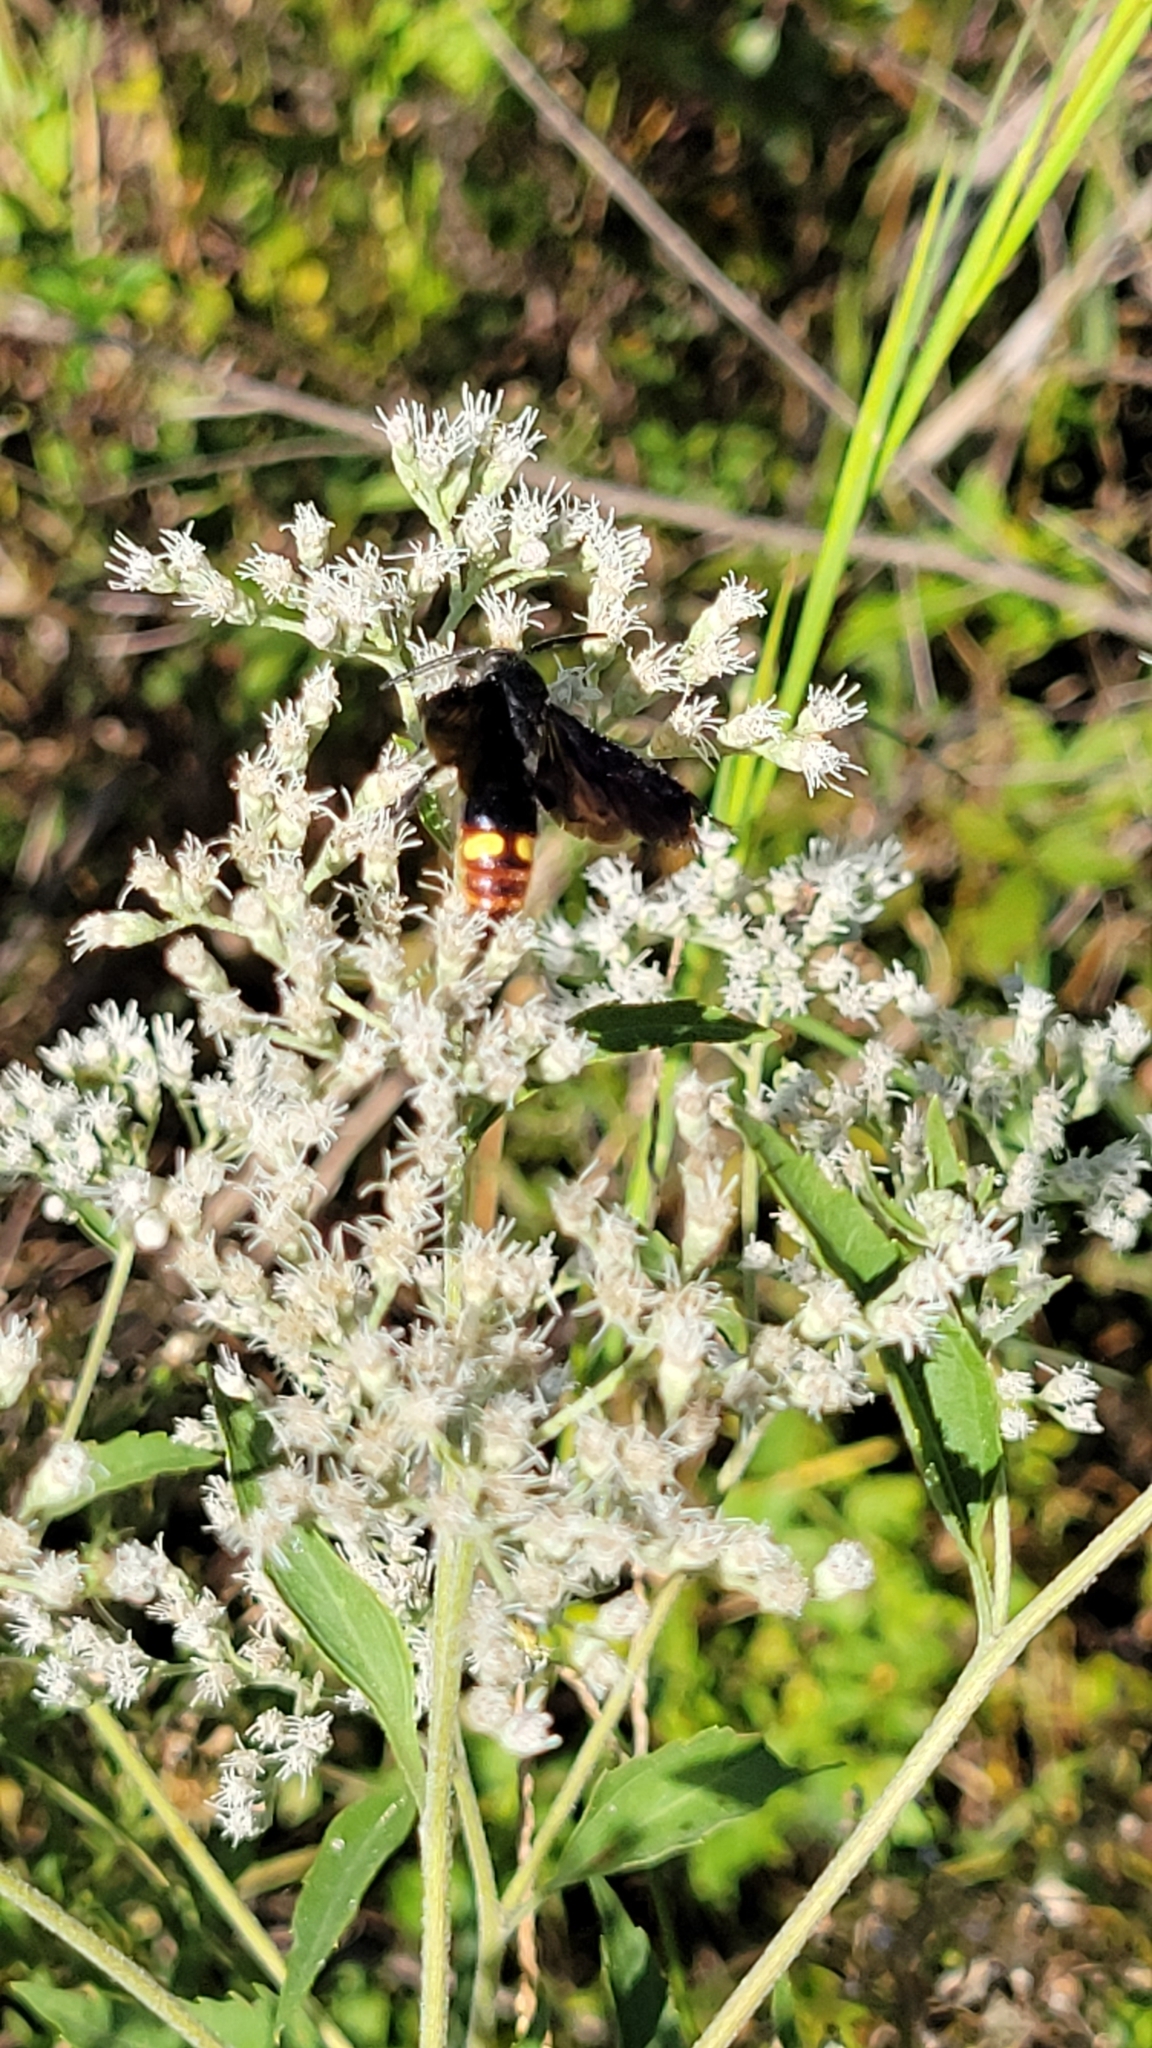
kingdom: Animalia
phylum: Arthropoda
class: Insecta
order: Hymenoptera
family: Scoliidae
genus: Scolia
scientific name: Scolia dubia
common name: Blue-winged scoliid wasp
